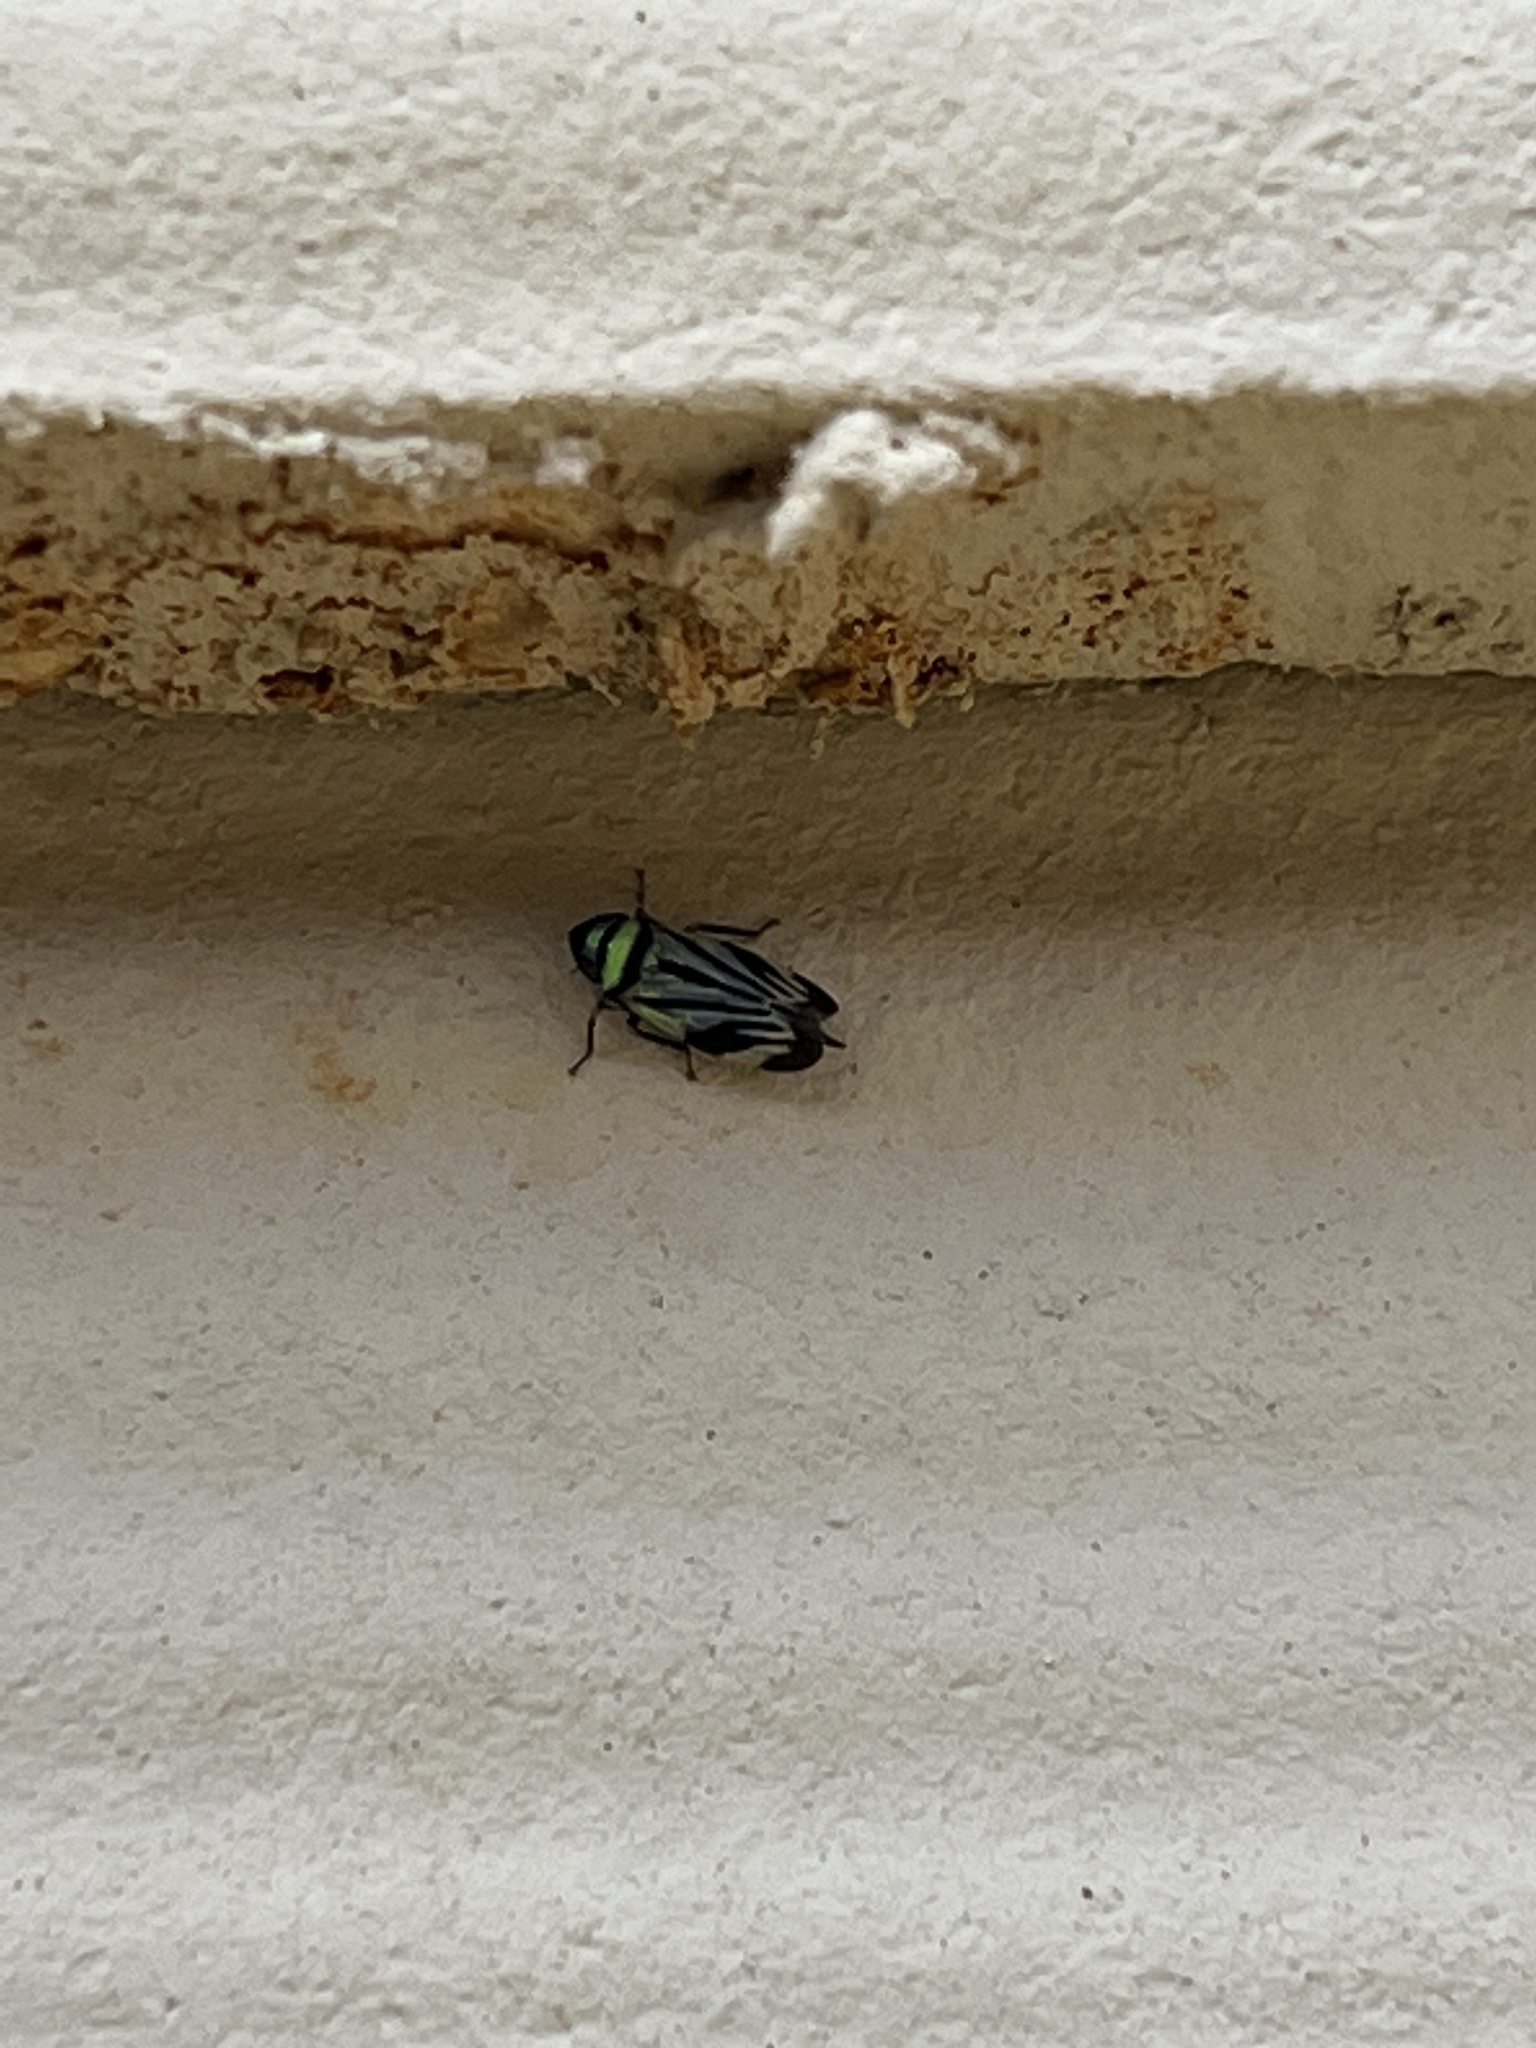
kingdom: Animalia
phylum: Arthropoda
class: Insecta
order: Hemiptera
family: Cicadellidae
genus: Stirellus
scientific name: Stirellus bicolor
